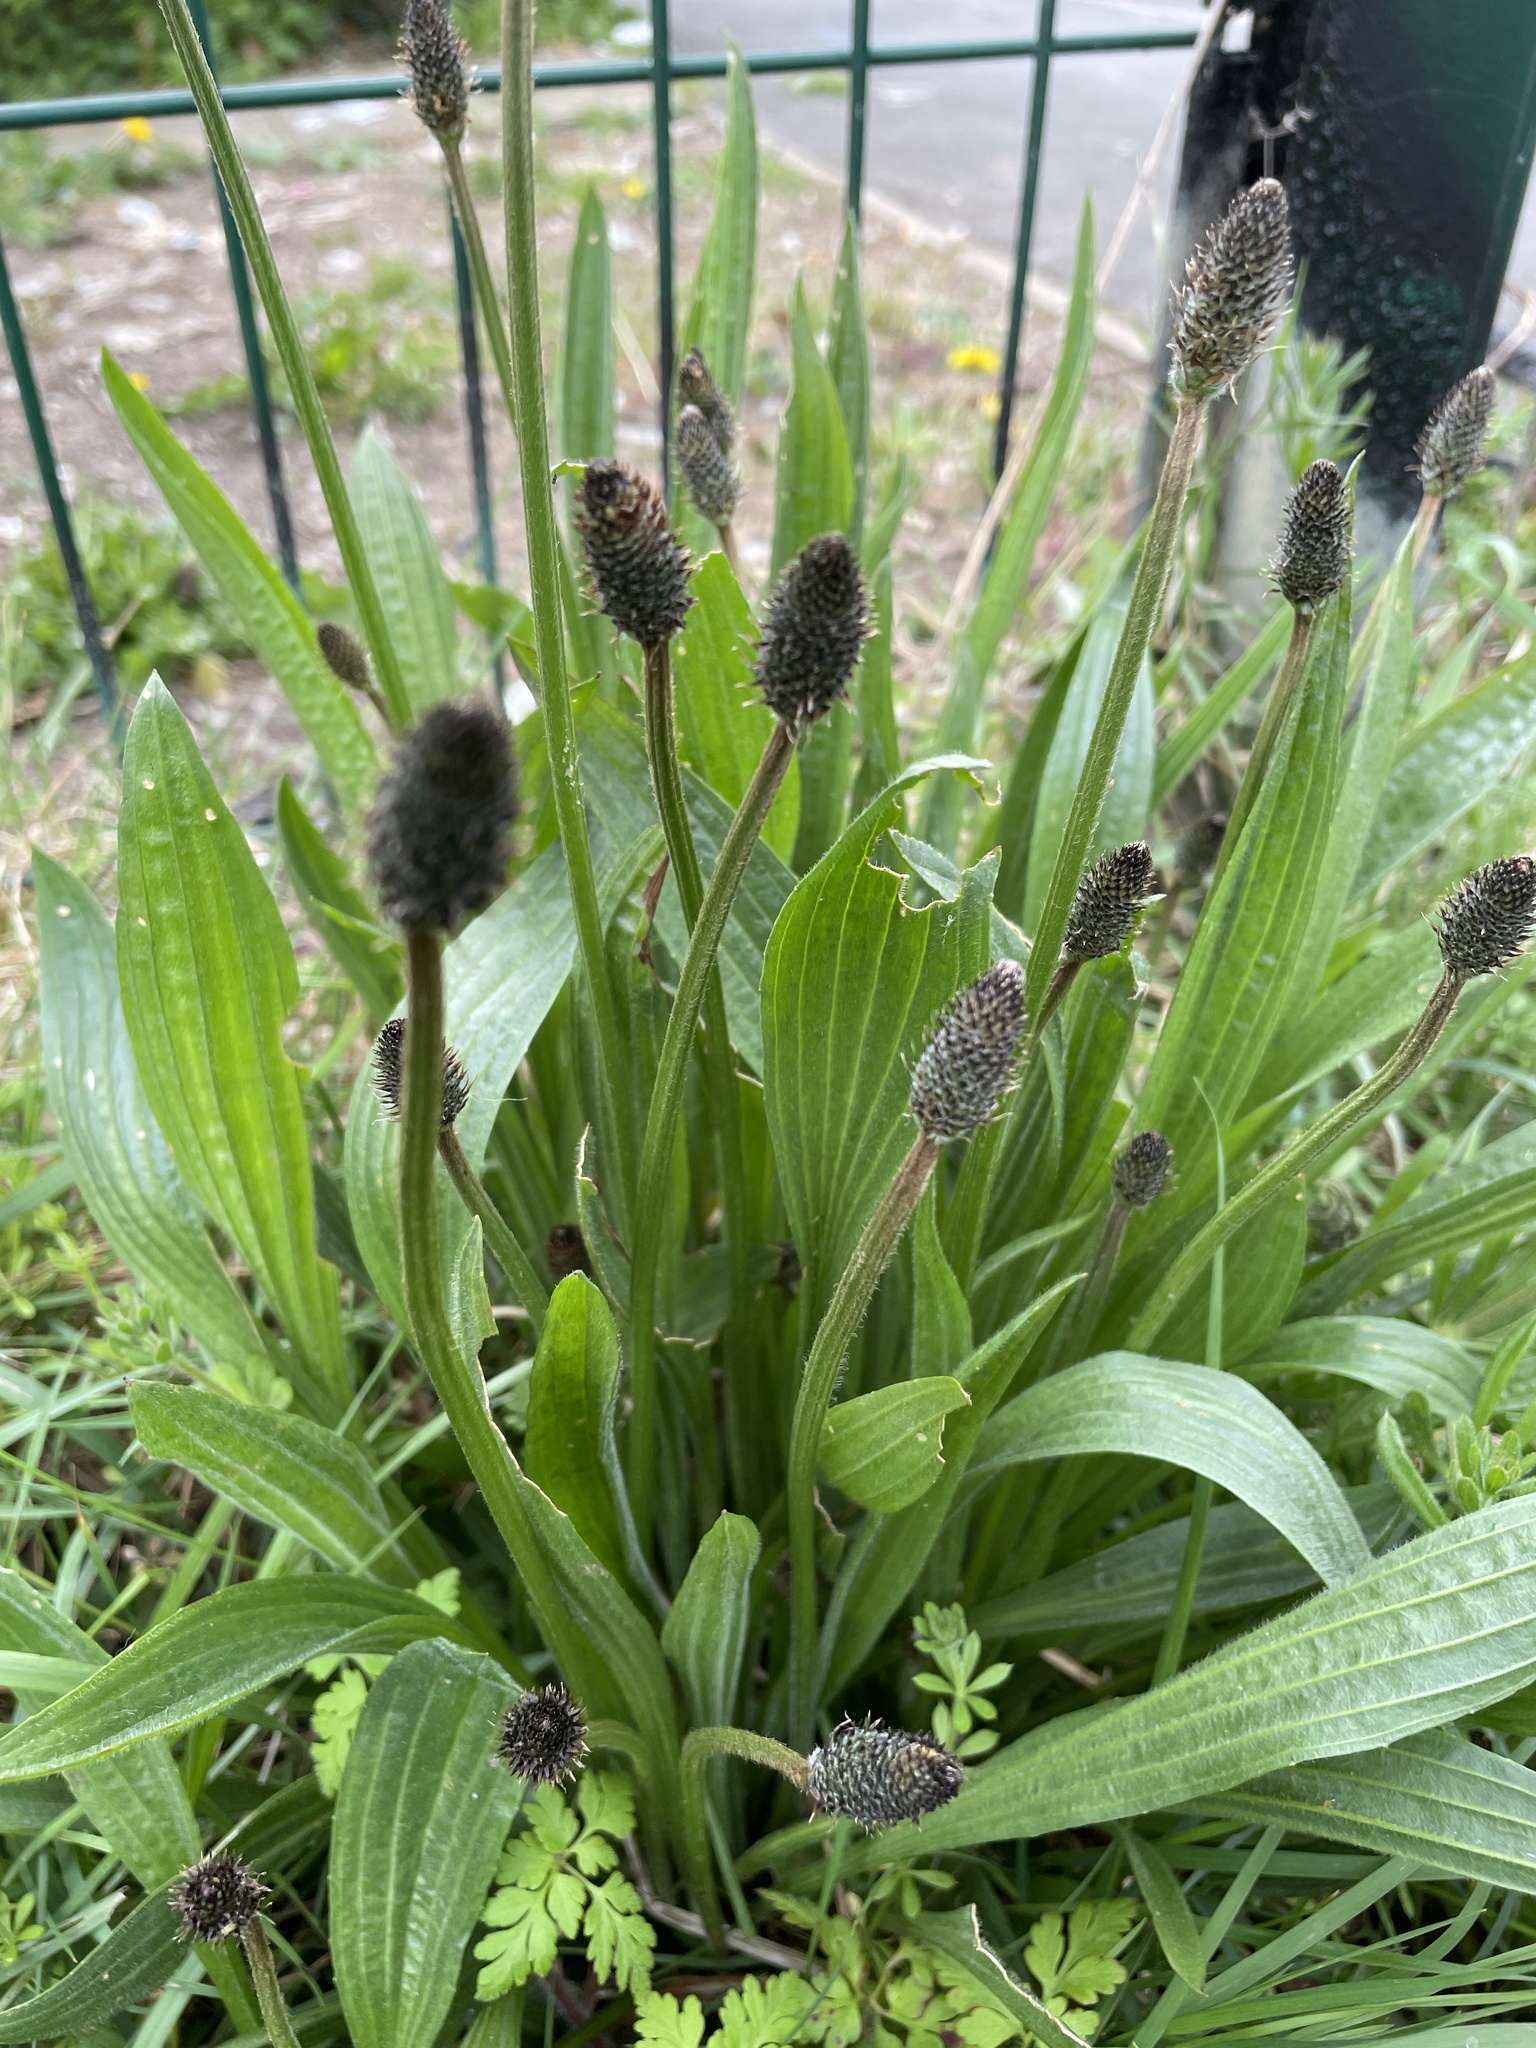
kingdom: Plantae
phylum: Tracheophyta
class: Magnoliopsida
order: Lamiales
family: Plantaginaceae
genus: Plantago
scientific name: Plantago lanceolata
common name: Ribwort plantain
